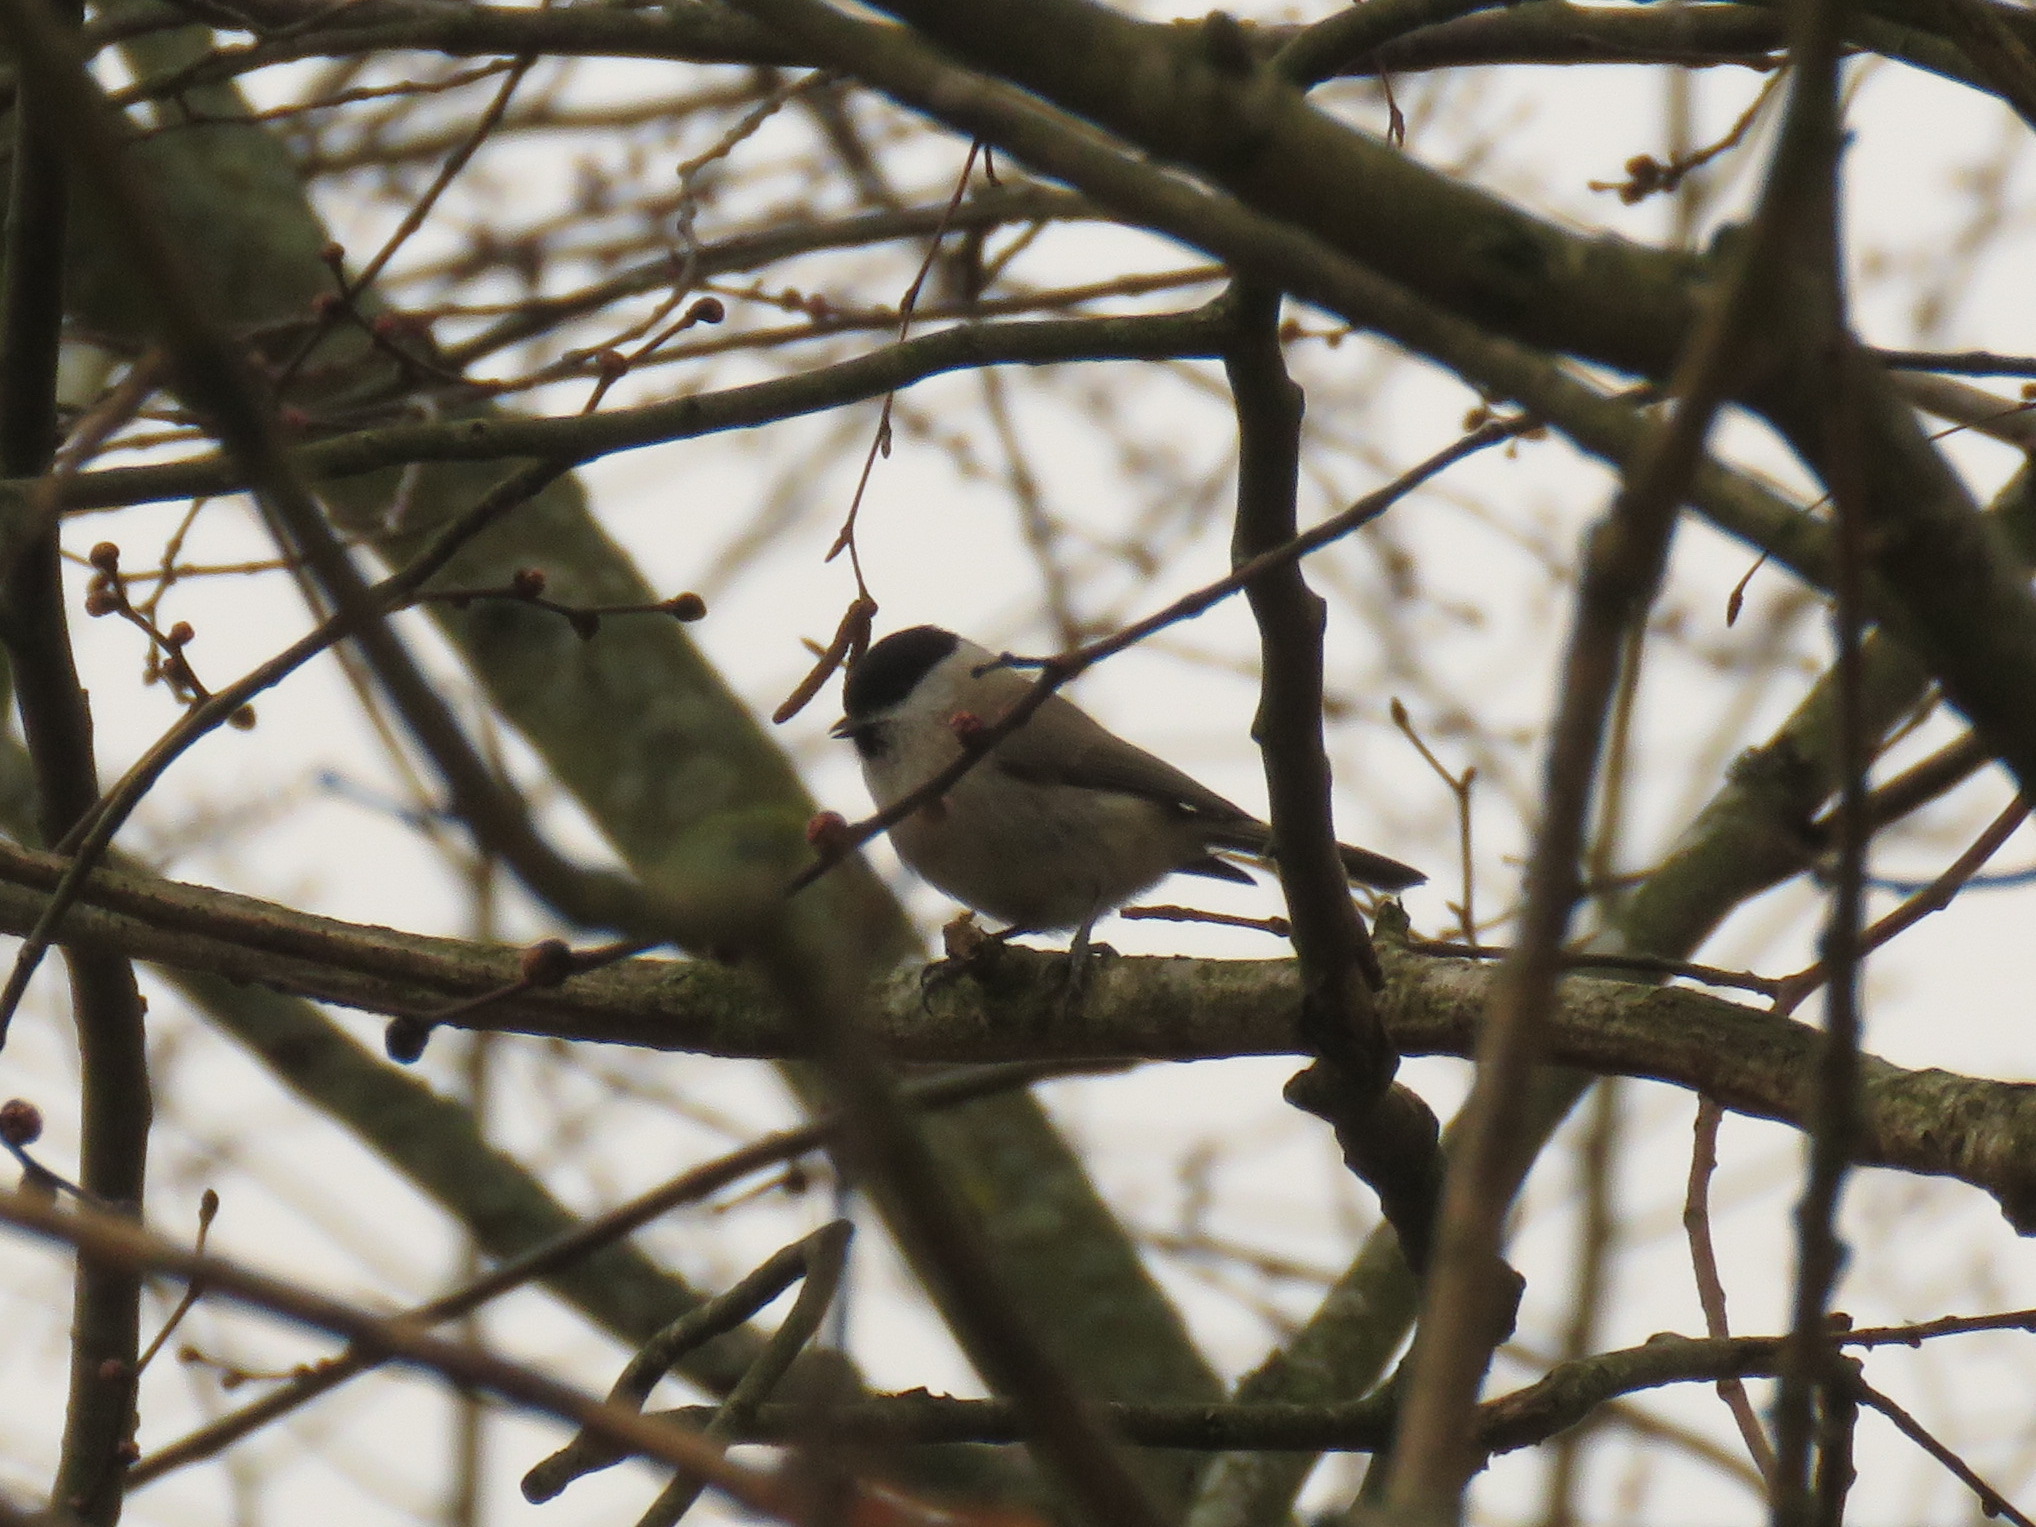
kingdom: Animalia
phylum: Chordata
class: Aves
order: Passeriformes
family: Paridae
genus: Poecile
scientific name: Poecile palustris
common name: Marsh tit
